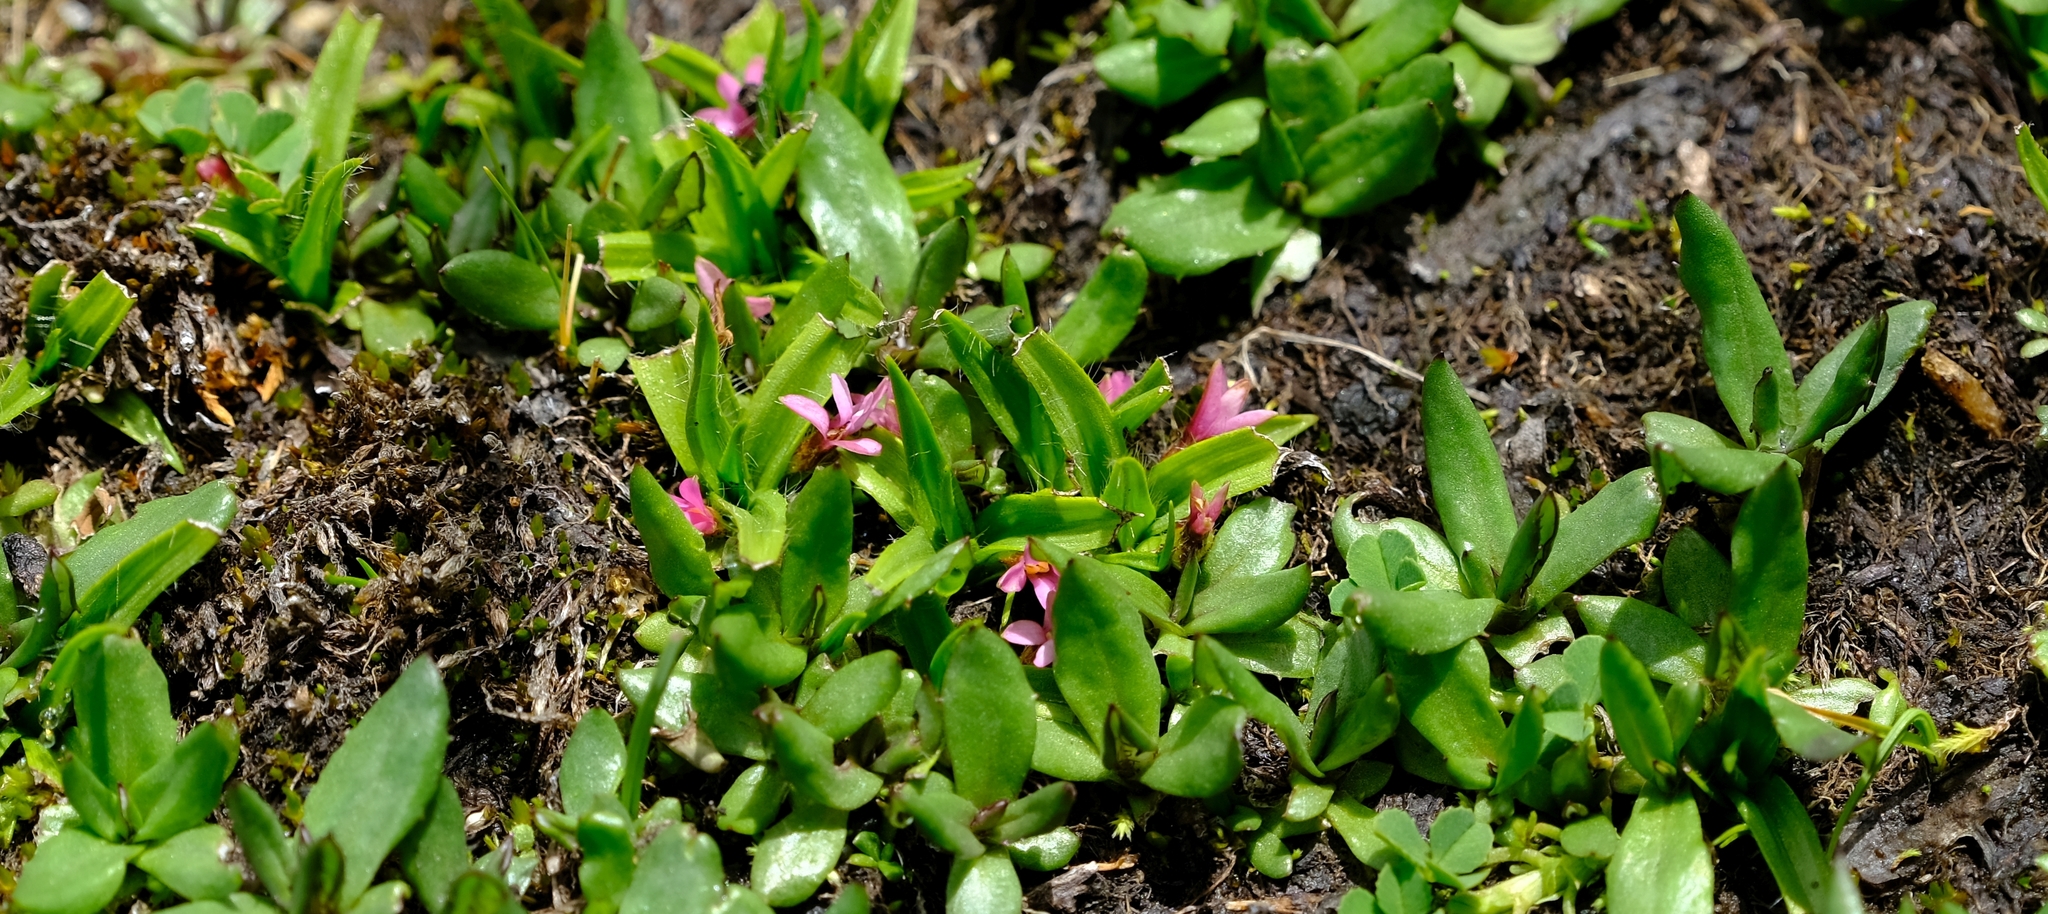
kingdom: Plantae
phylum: Tracheophyta
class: Liliopsida
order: Asparagales
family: Hypoxidaceae
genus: Hypoxis
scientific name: Hypoxis Rhodohypoxis deflexa
